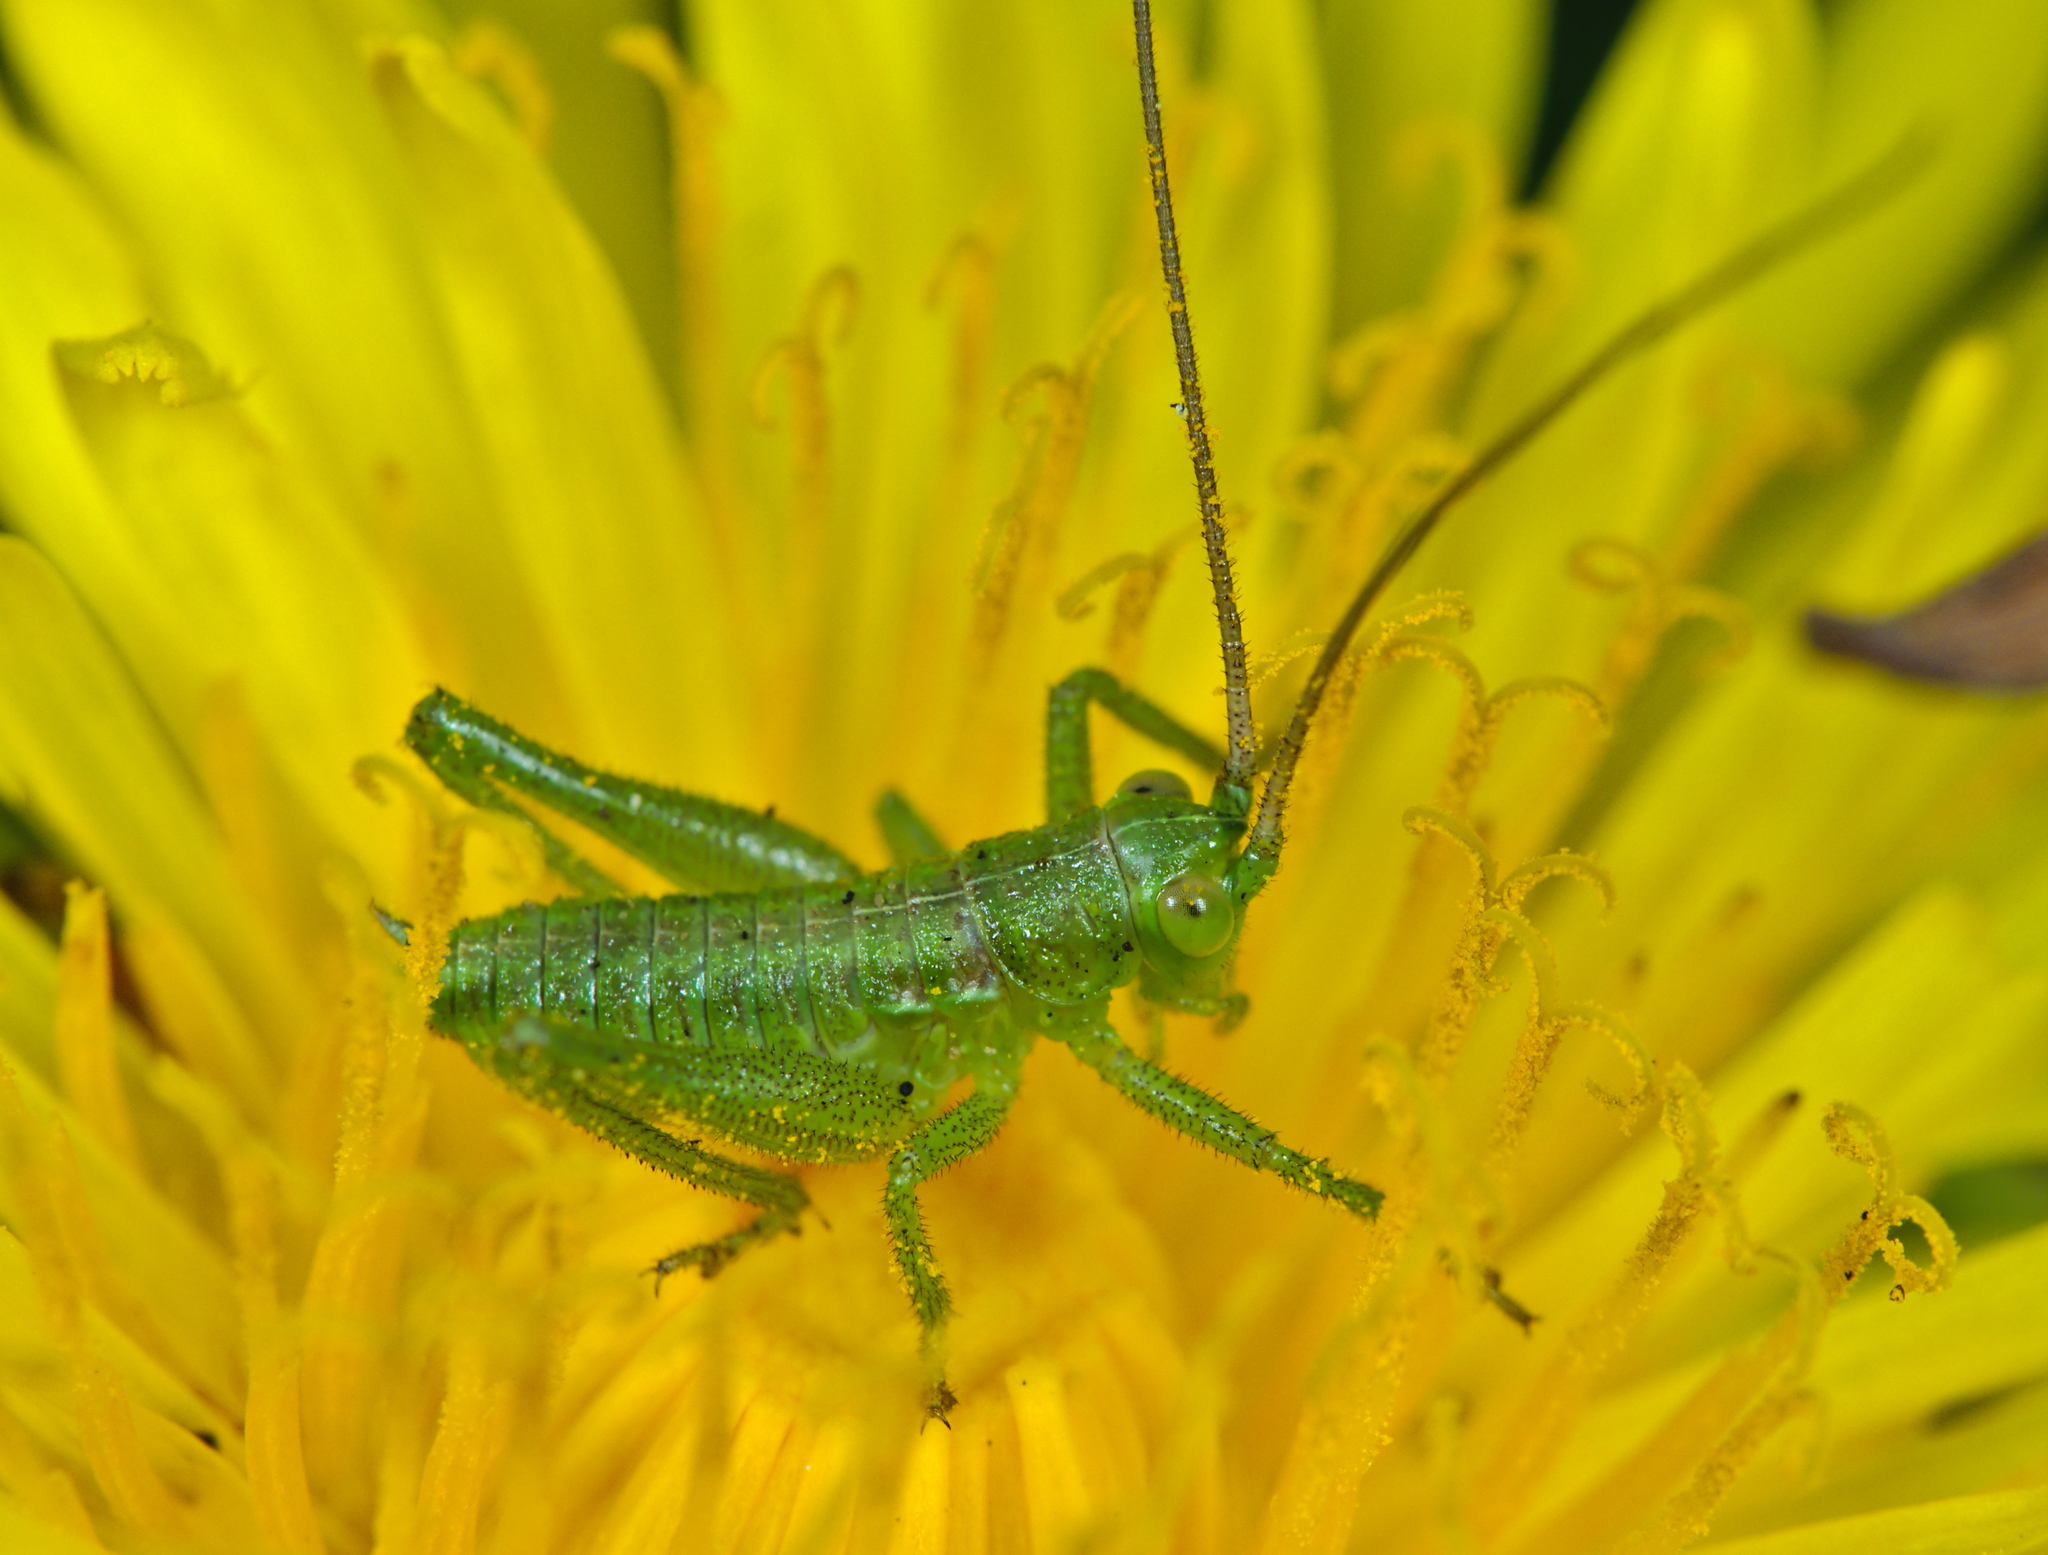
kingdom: Animalia
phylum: Arthropoda
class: Insecta
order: Orthoptera
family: Tettigoniidae
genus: Tettigonia
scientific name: Tettigonia viridissima
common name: Great green bush-cricket
